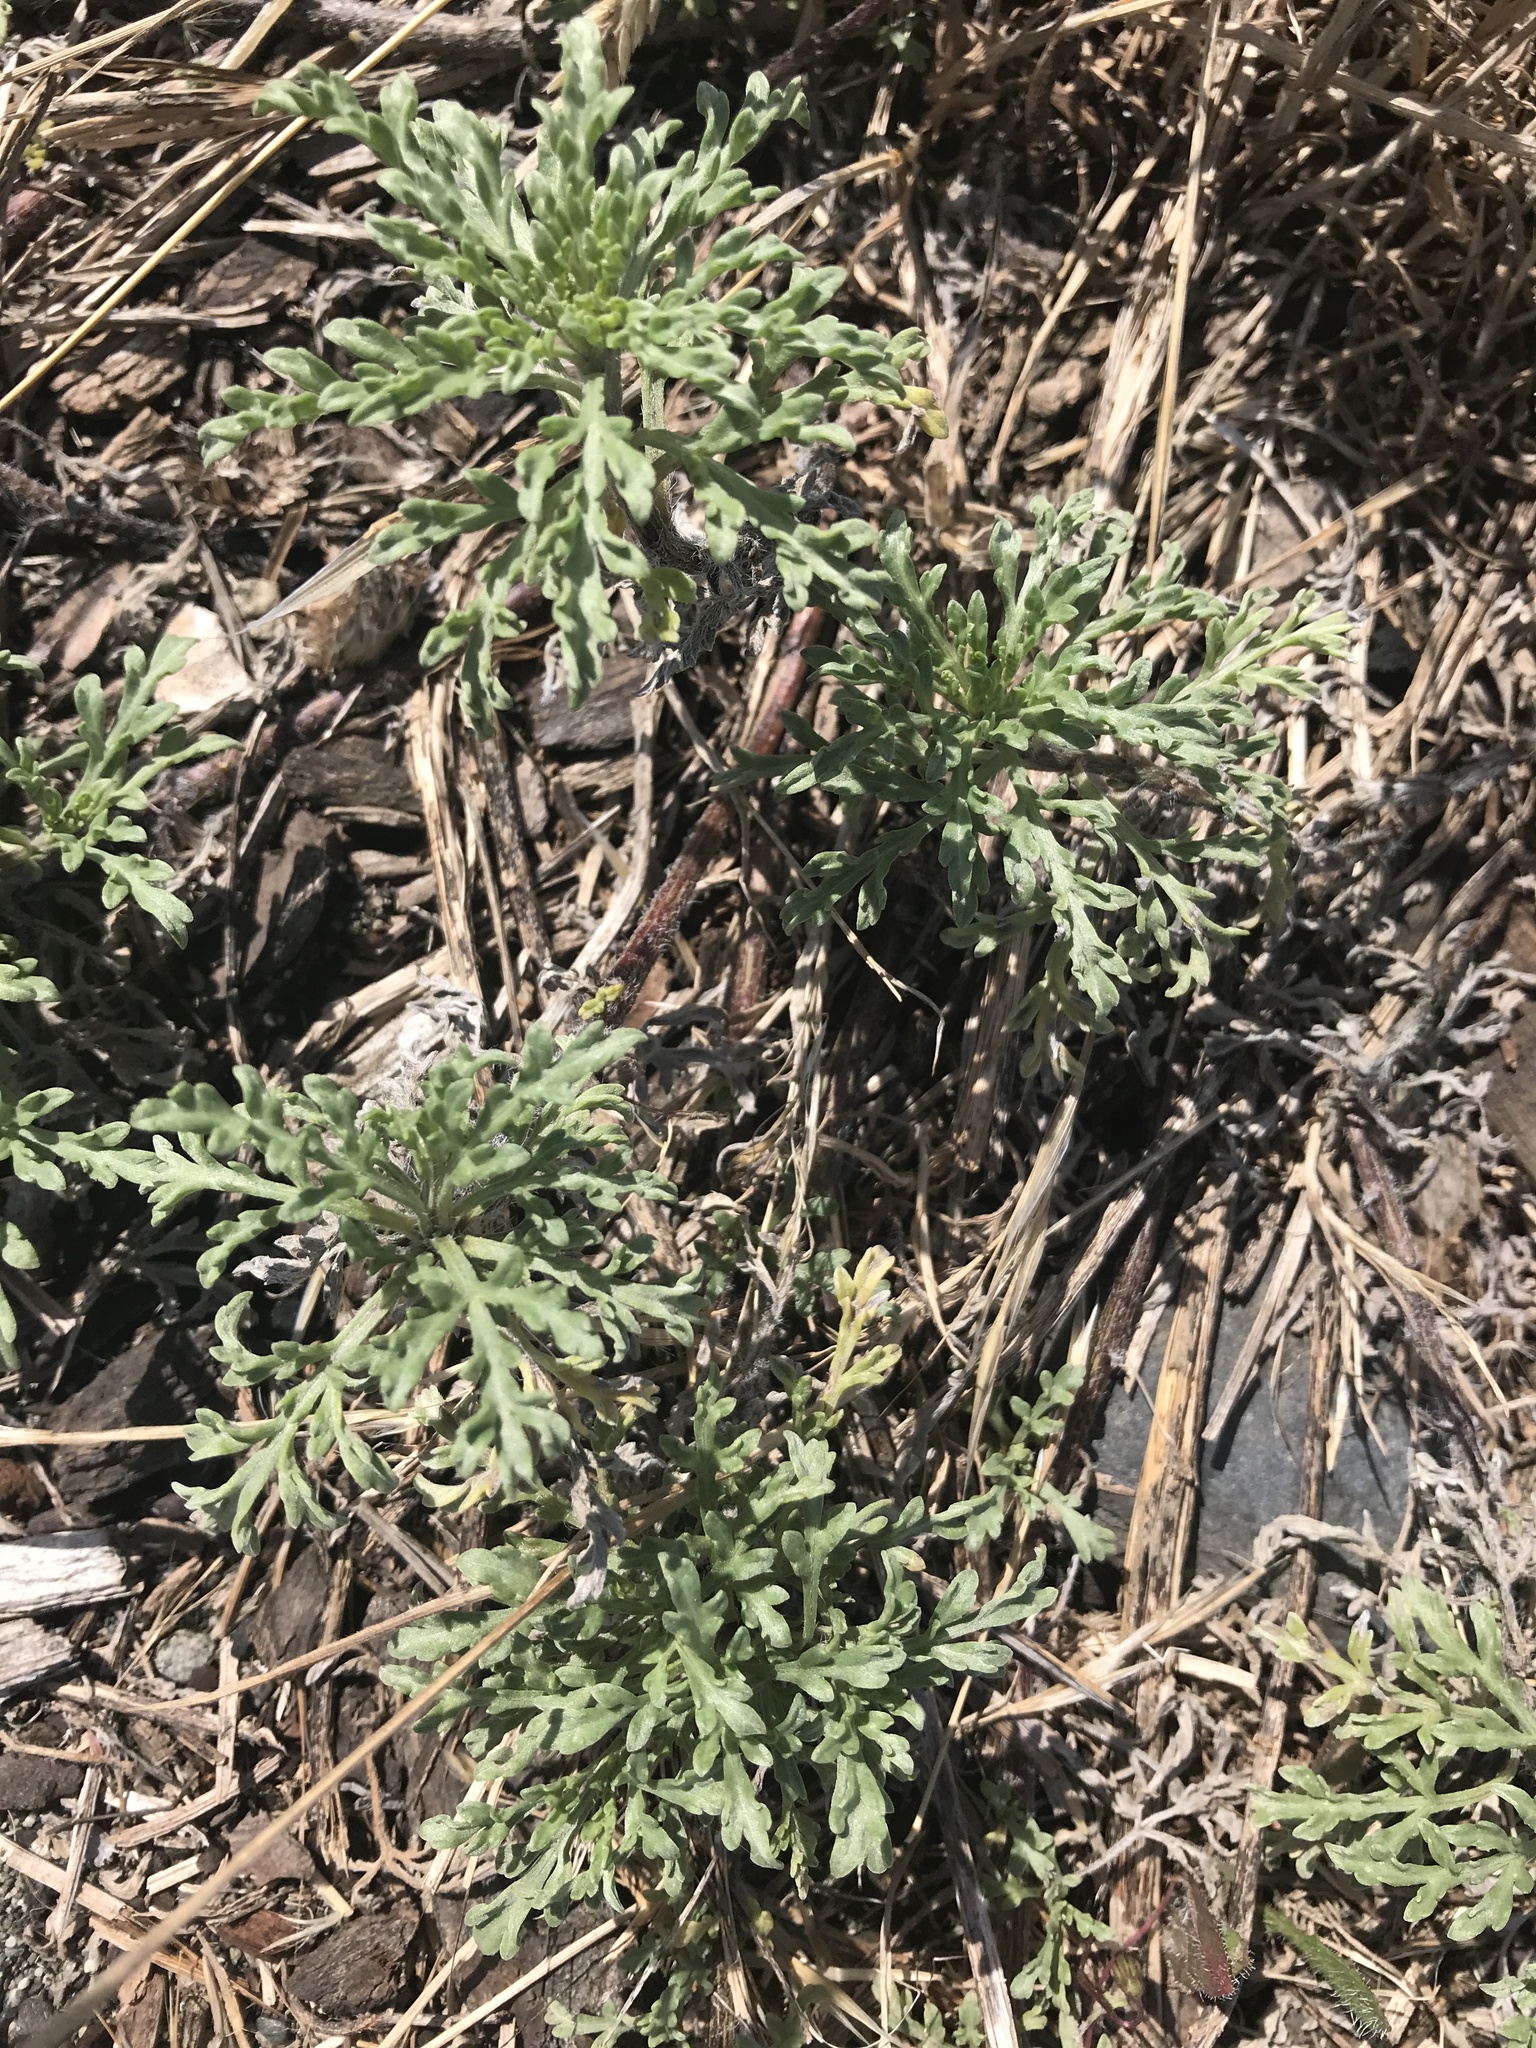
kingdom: Plantae
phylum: Tracheophyta
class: Magnoliopsida
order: Asterales
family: Asteraceae
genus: Ambrosia
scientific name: Ambrosia chamissonis
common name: Beachbur
